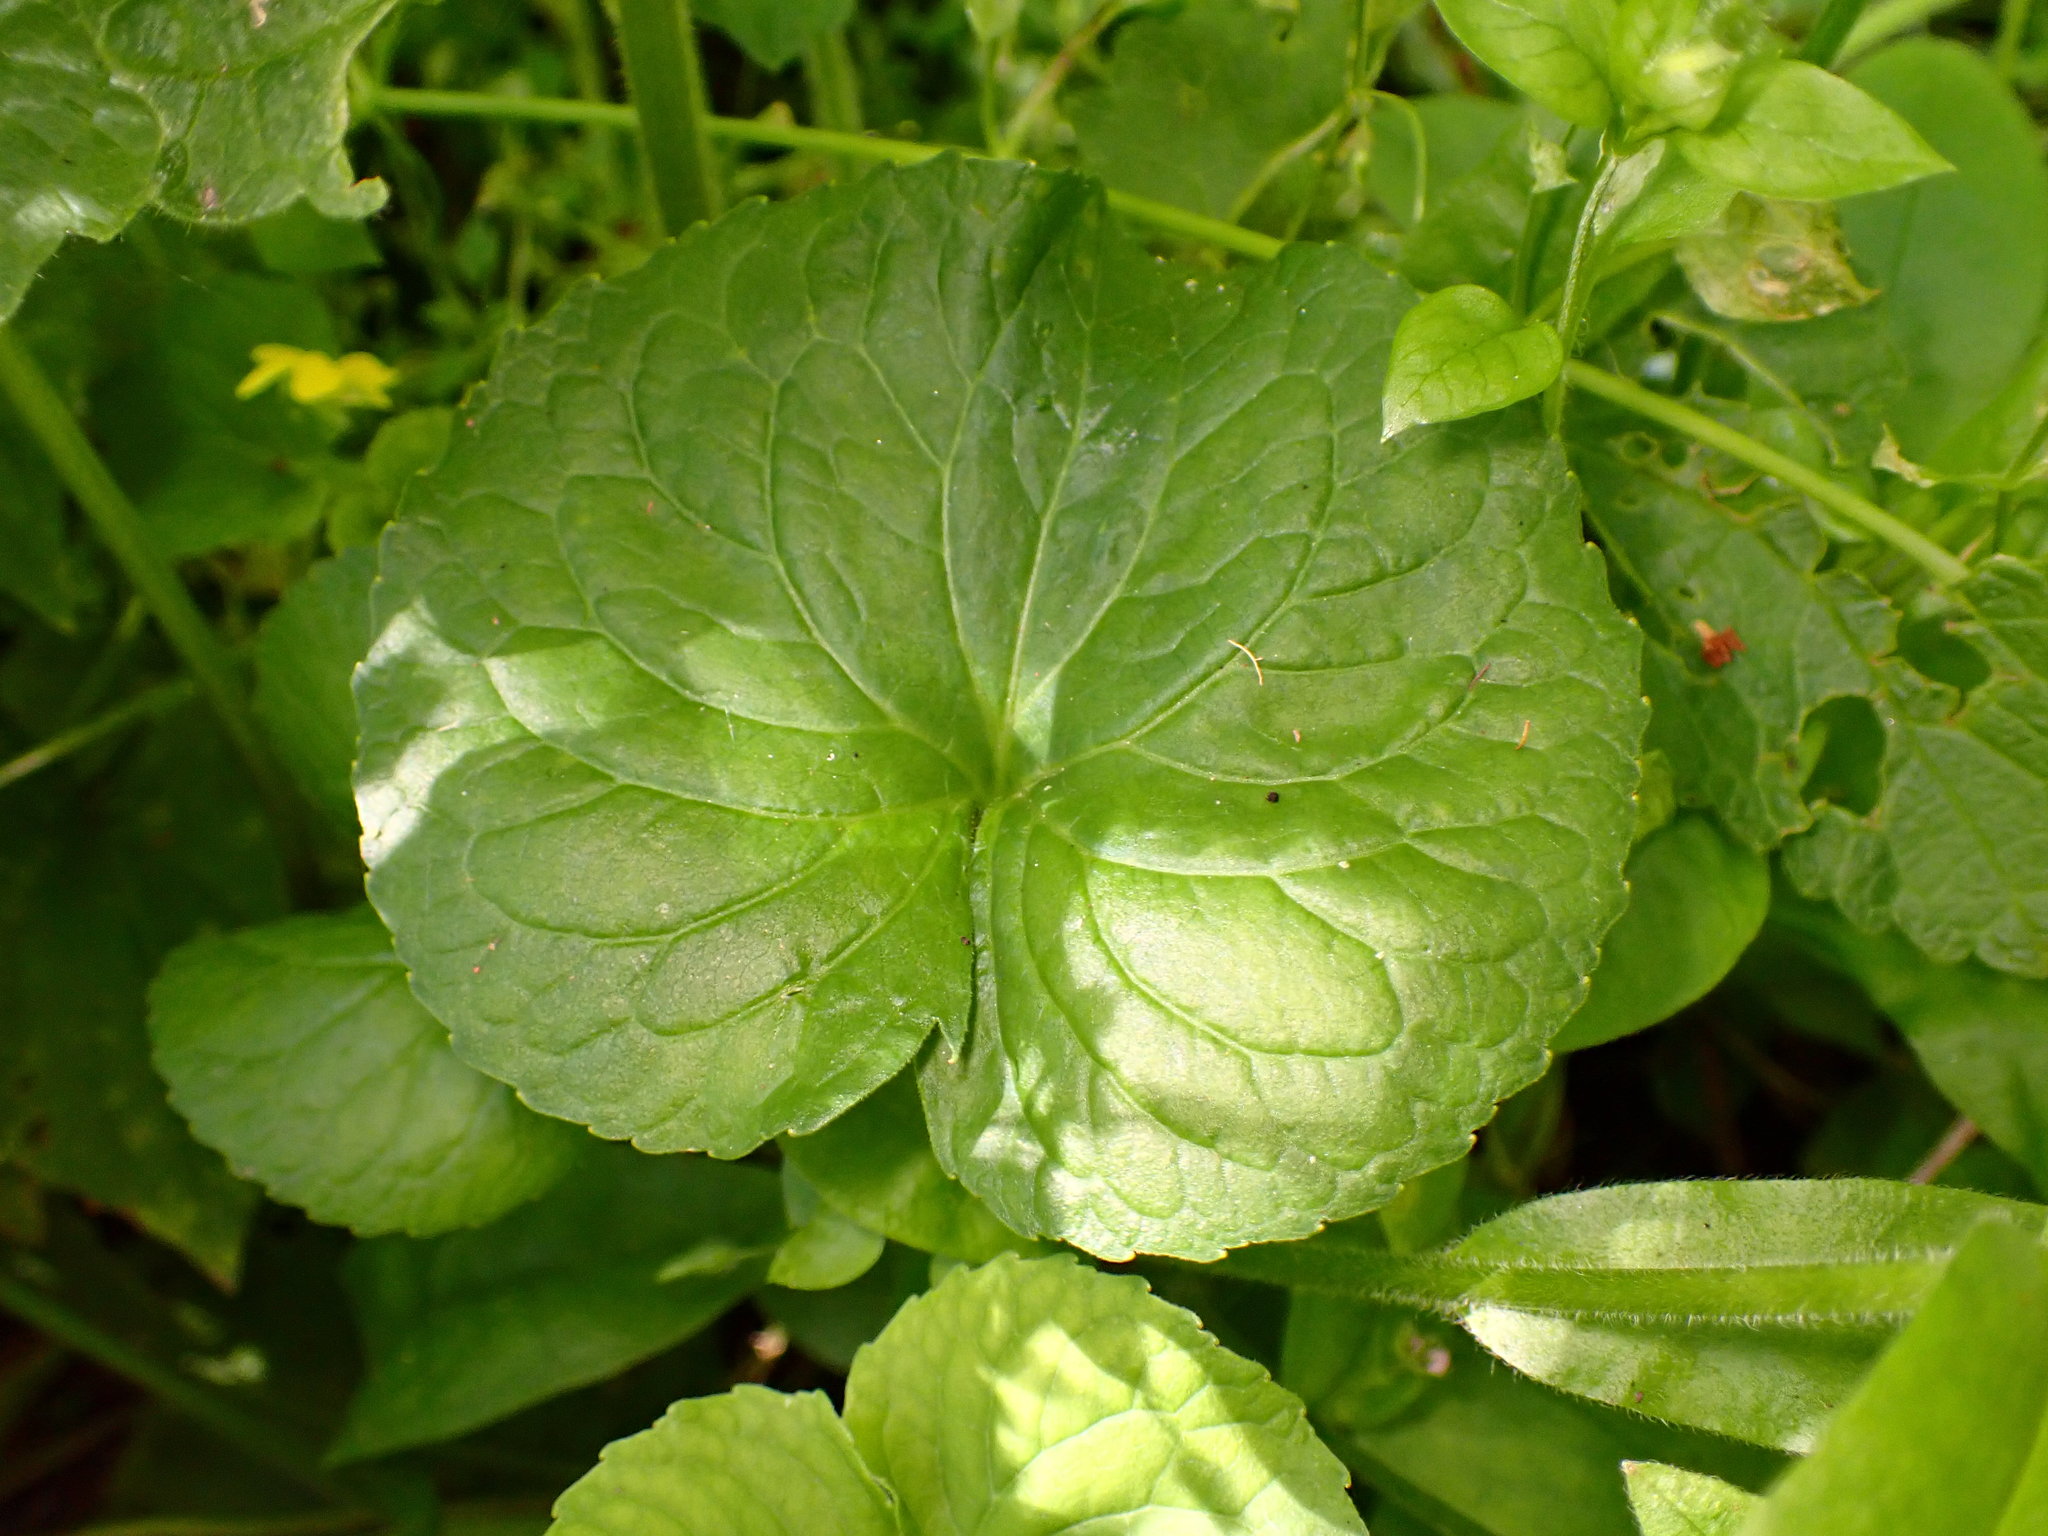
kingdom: Plantae
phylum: Tracheophyta
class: Magnoliopsida
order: Malpighiales
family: Violaceae
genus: Viola
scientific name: Viola glabella
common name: Stream violet
